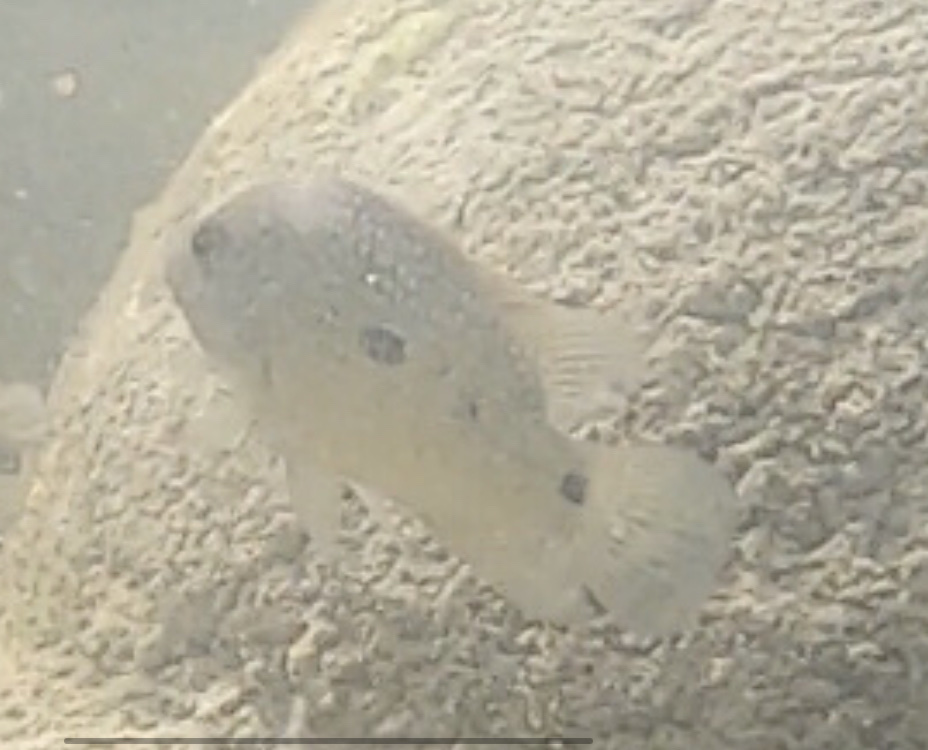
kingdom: Animalia
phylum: Chordata
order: Perciformes
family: Cichlidae
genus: Herichthys
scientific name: Herichthys cyanoguttatus
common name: Rio grande cichlid
